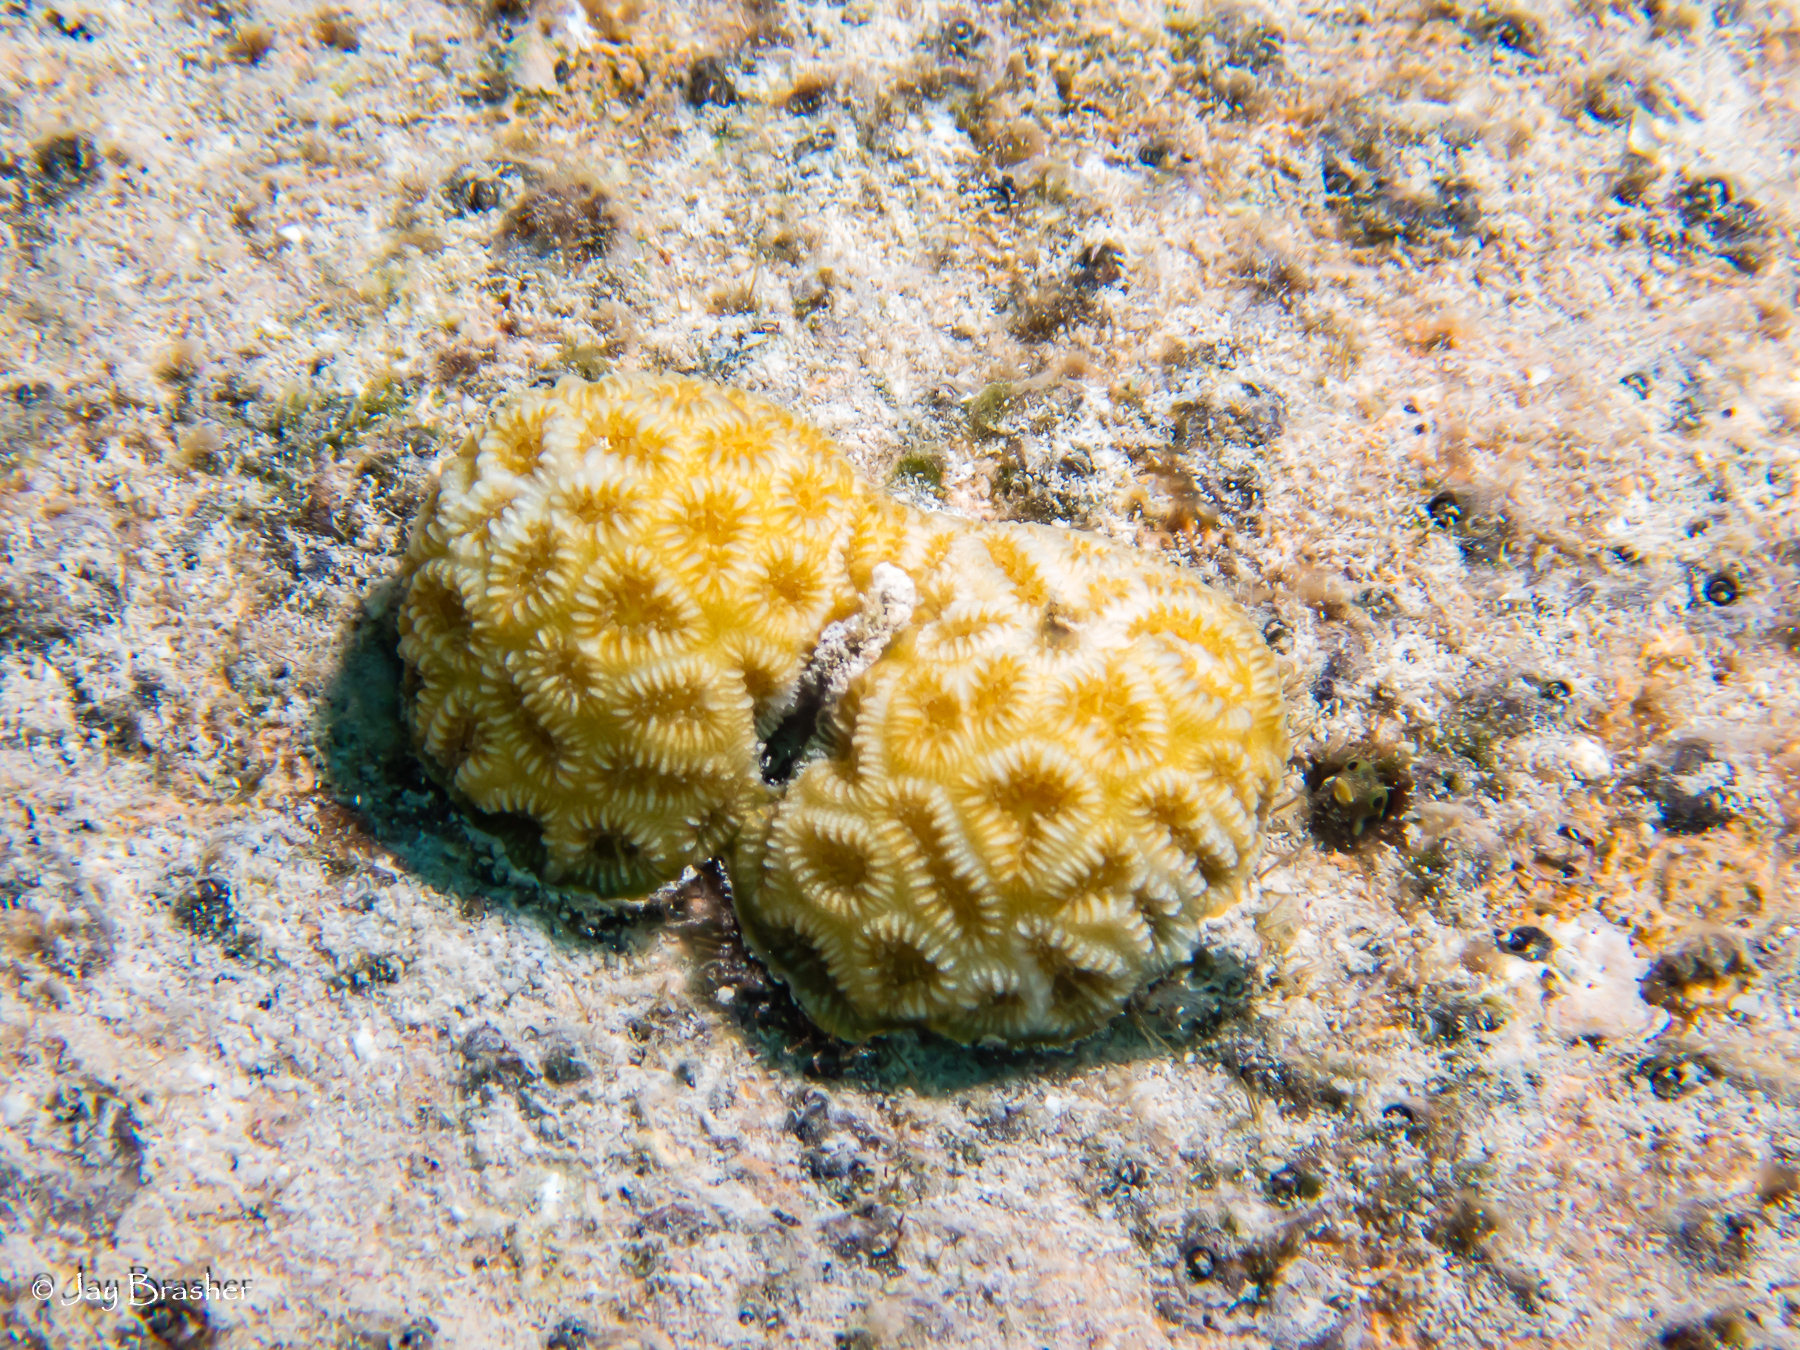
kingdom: Animalia
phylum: Cnidaria
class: Anthozoa
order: Scleractinia
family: Faviidae
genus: Favia
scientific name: Favia fragum
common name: Golfball coral
